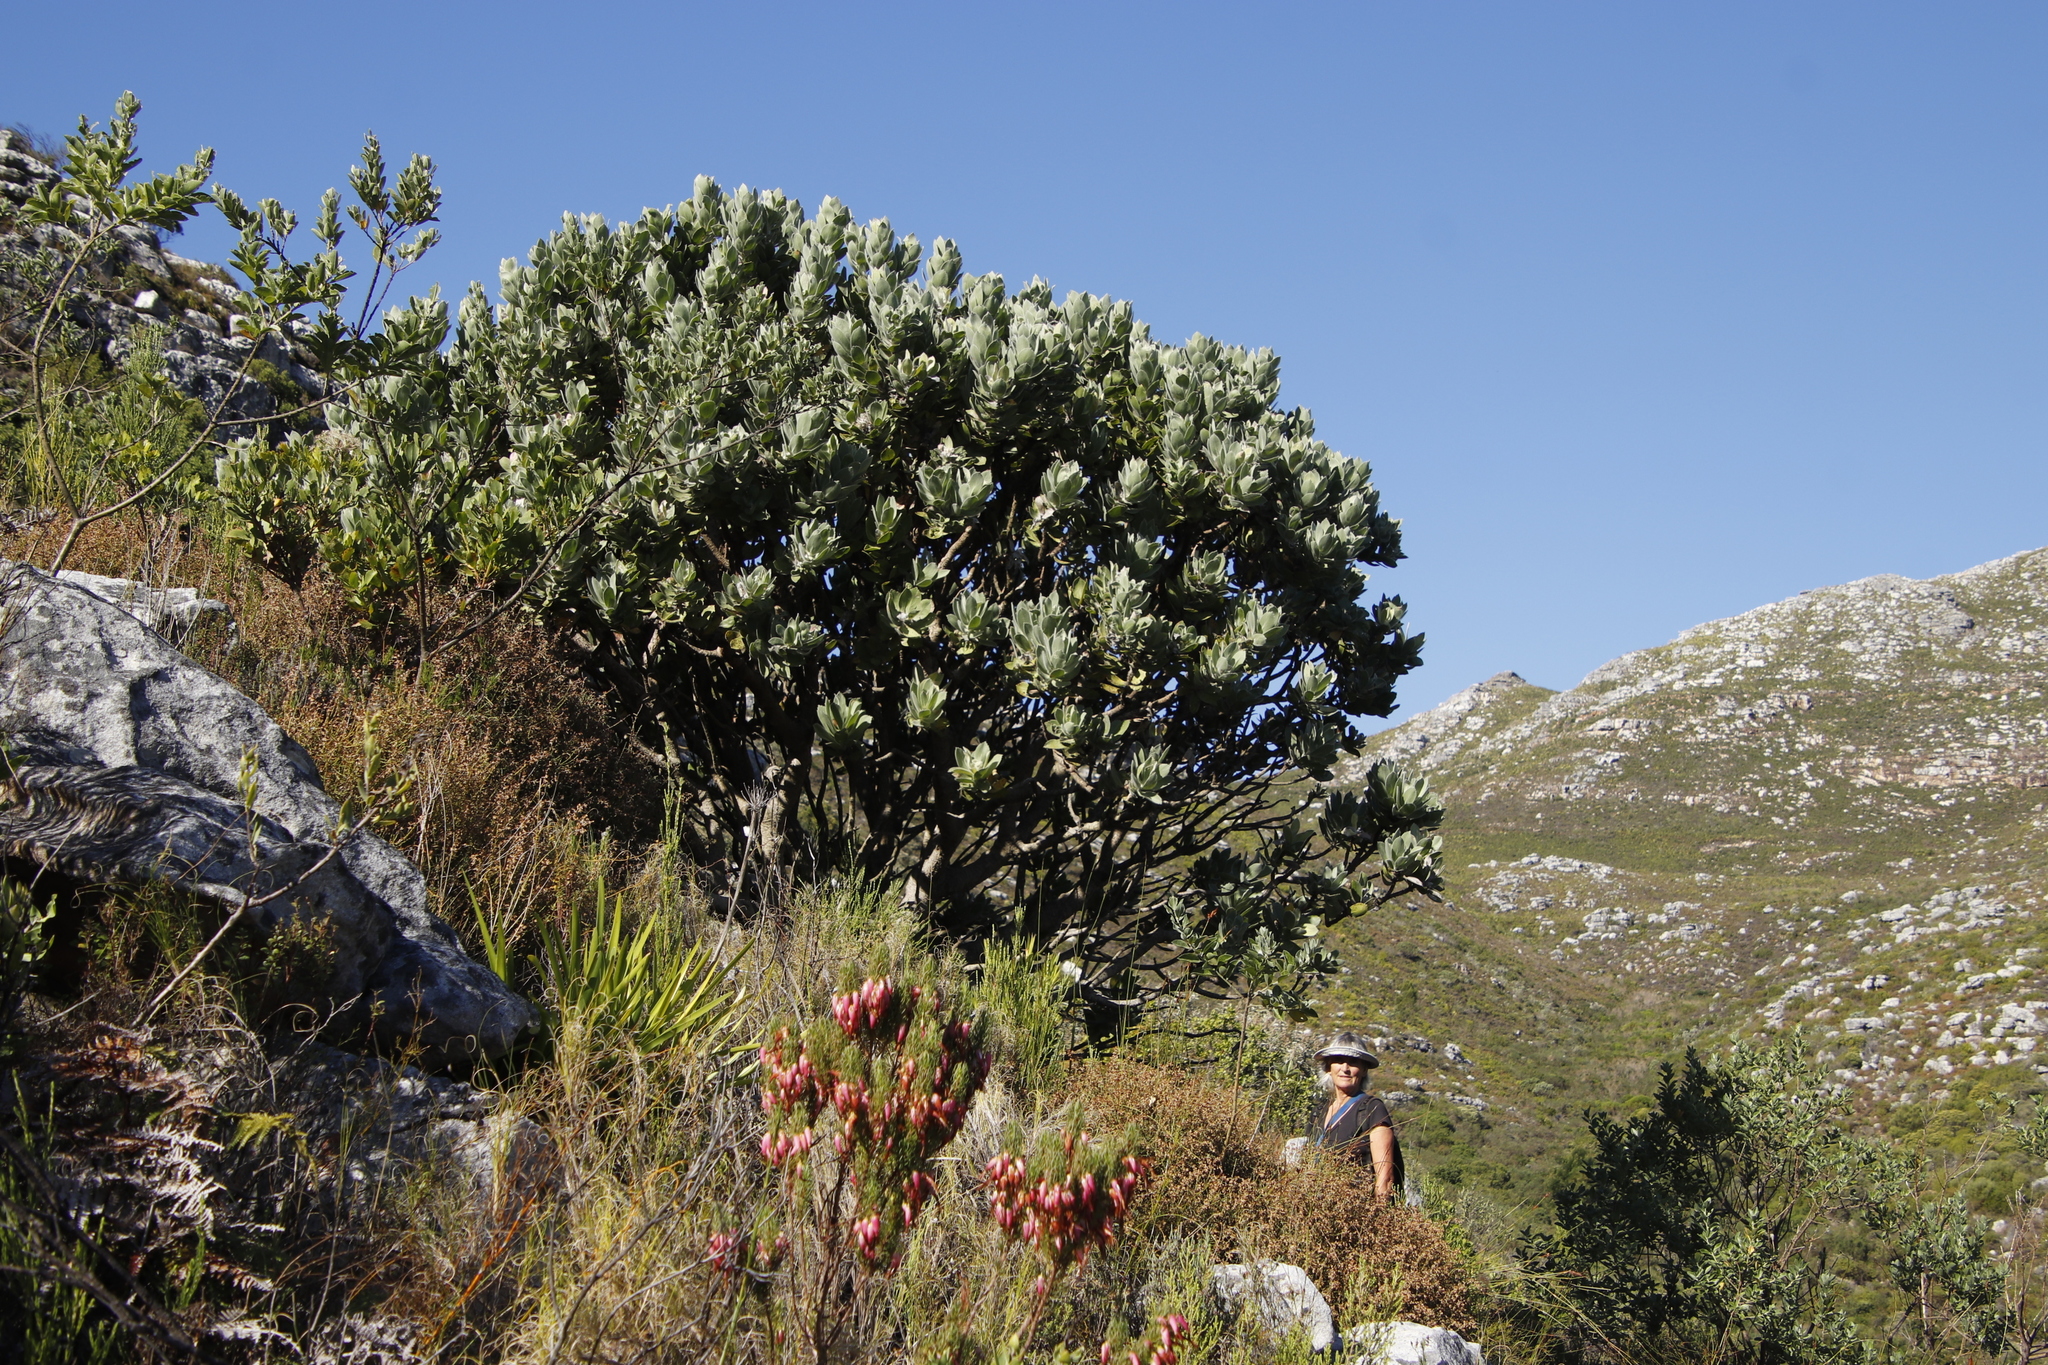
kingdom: Plantae
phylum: Tracheophyta
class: Magnoliopsida
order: Proteales
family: Proteaceae
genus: Leucospermum
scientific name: Leucospermum conocarpodendron
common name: Tree pincushion
